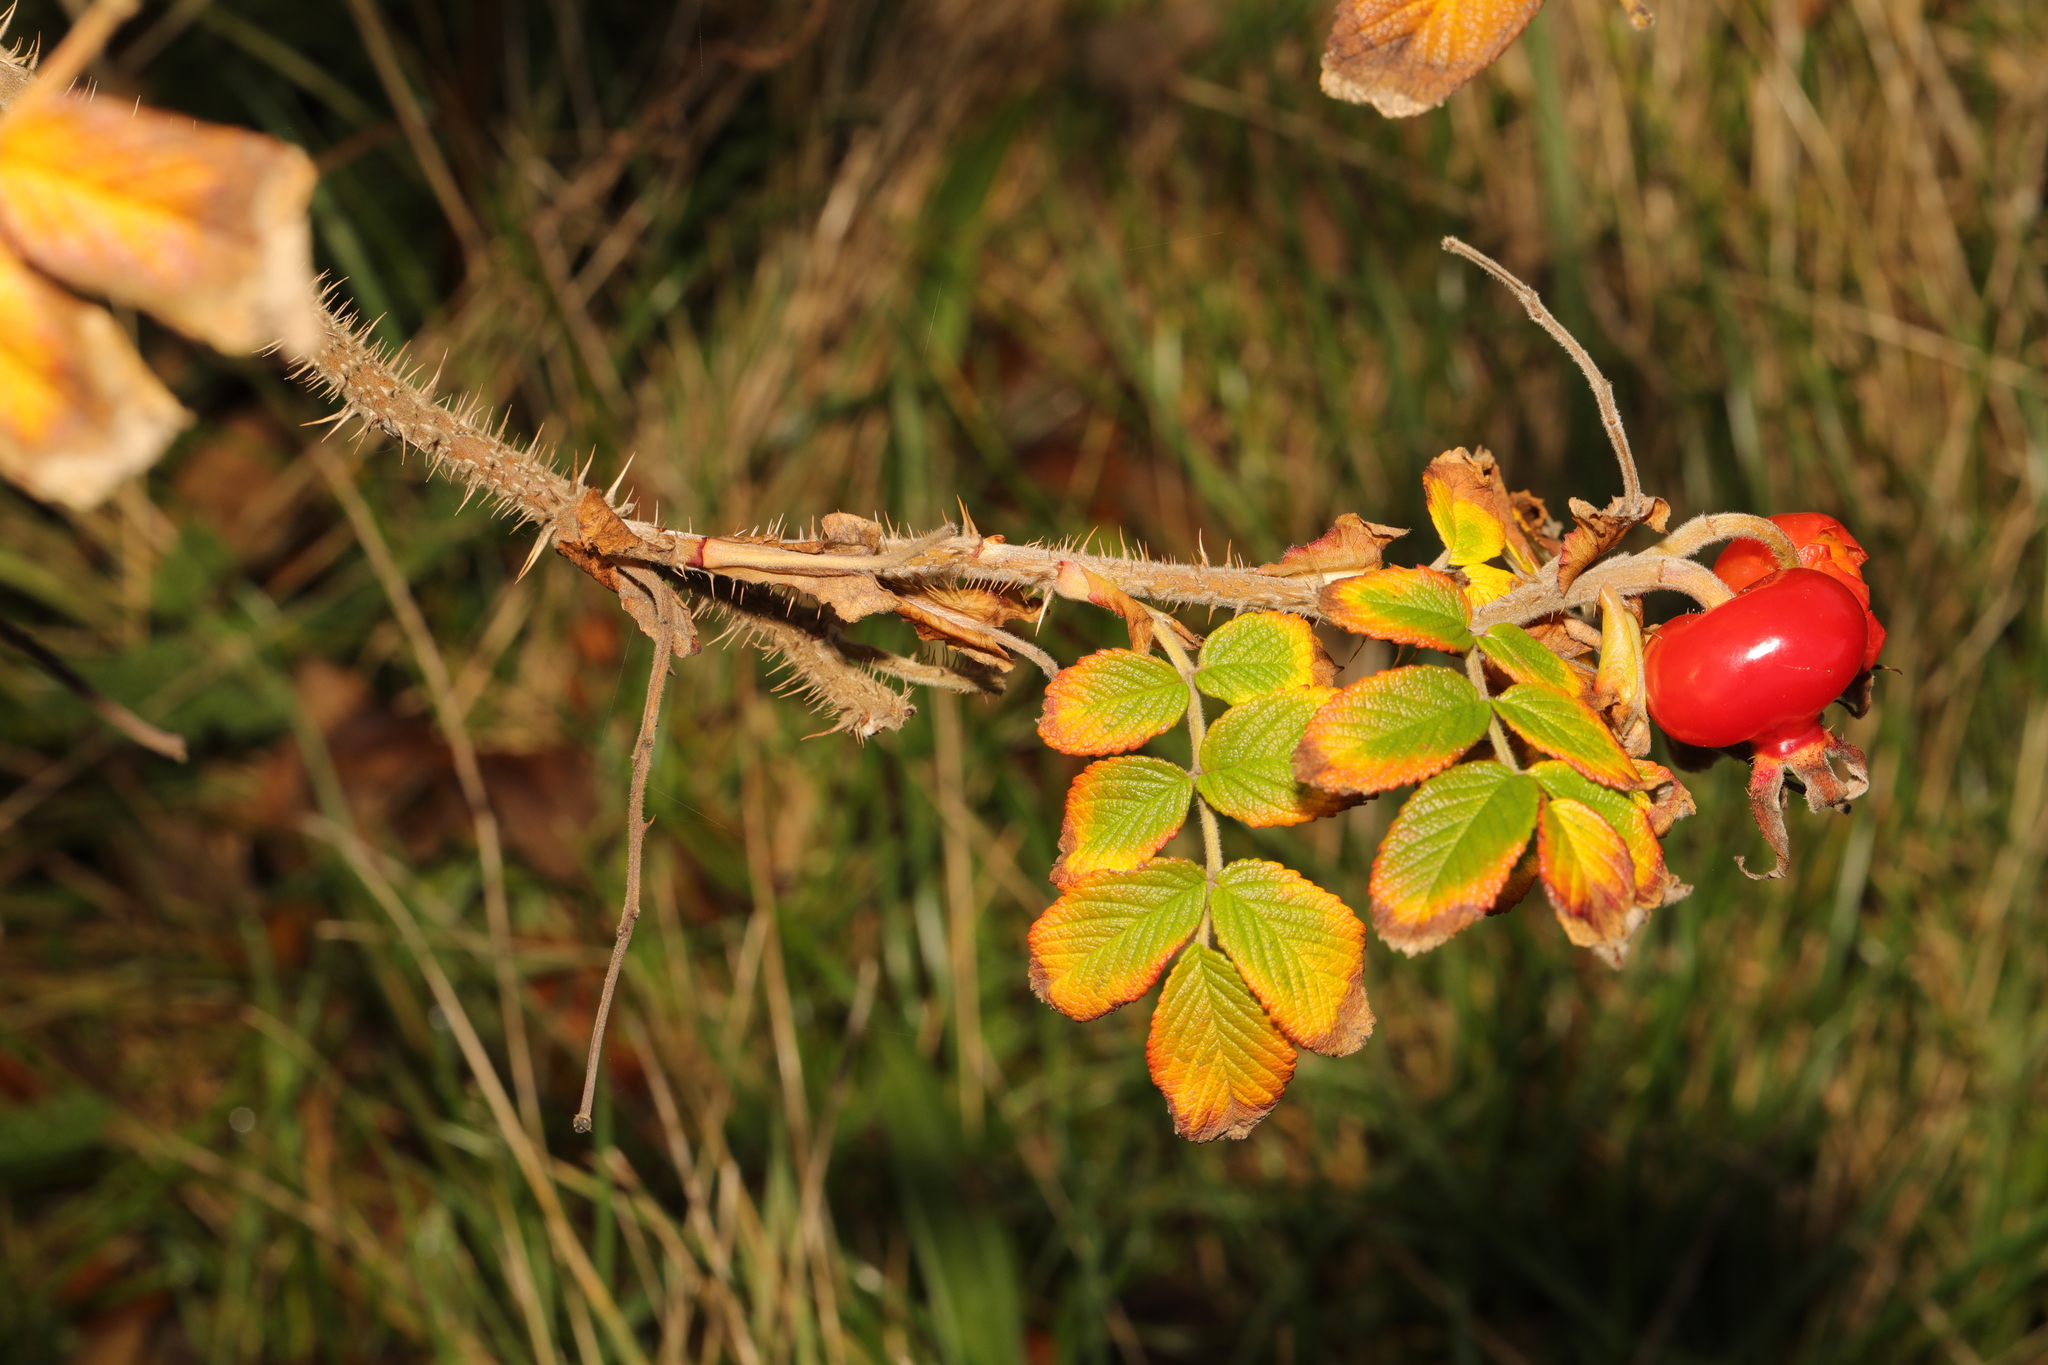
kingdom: Plantae
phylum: Tracheophyta
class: Magnoliopsida
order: Rosales
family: Rosaceae
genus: Rosa
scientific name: Rosa rugosa
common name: Japanese rose
